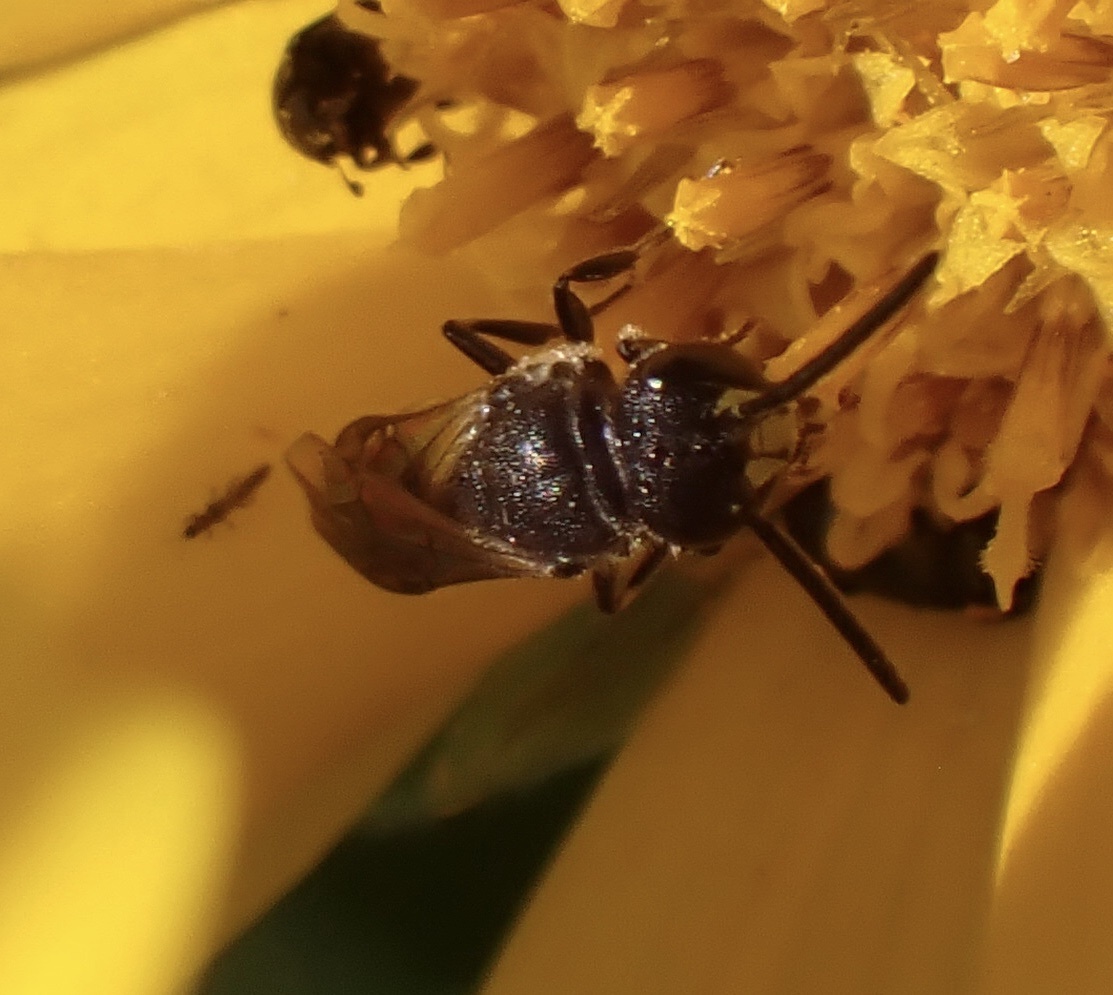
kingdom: Animalia
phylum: Arthropoda
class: Insecta
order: Hymenoptera
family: Colletidae
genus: Hylaeus
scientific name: Hylaeus communis
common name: Common yellow-face bee
